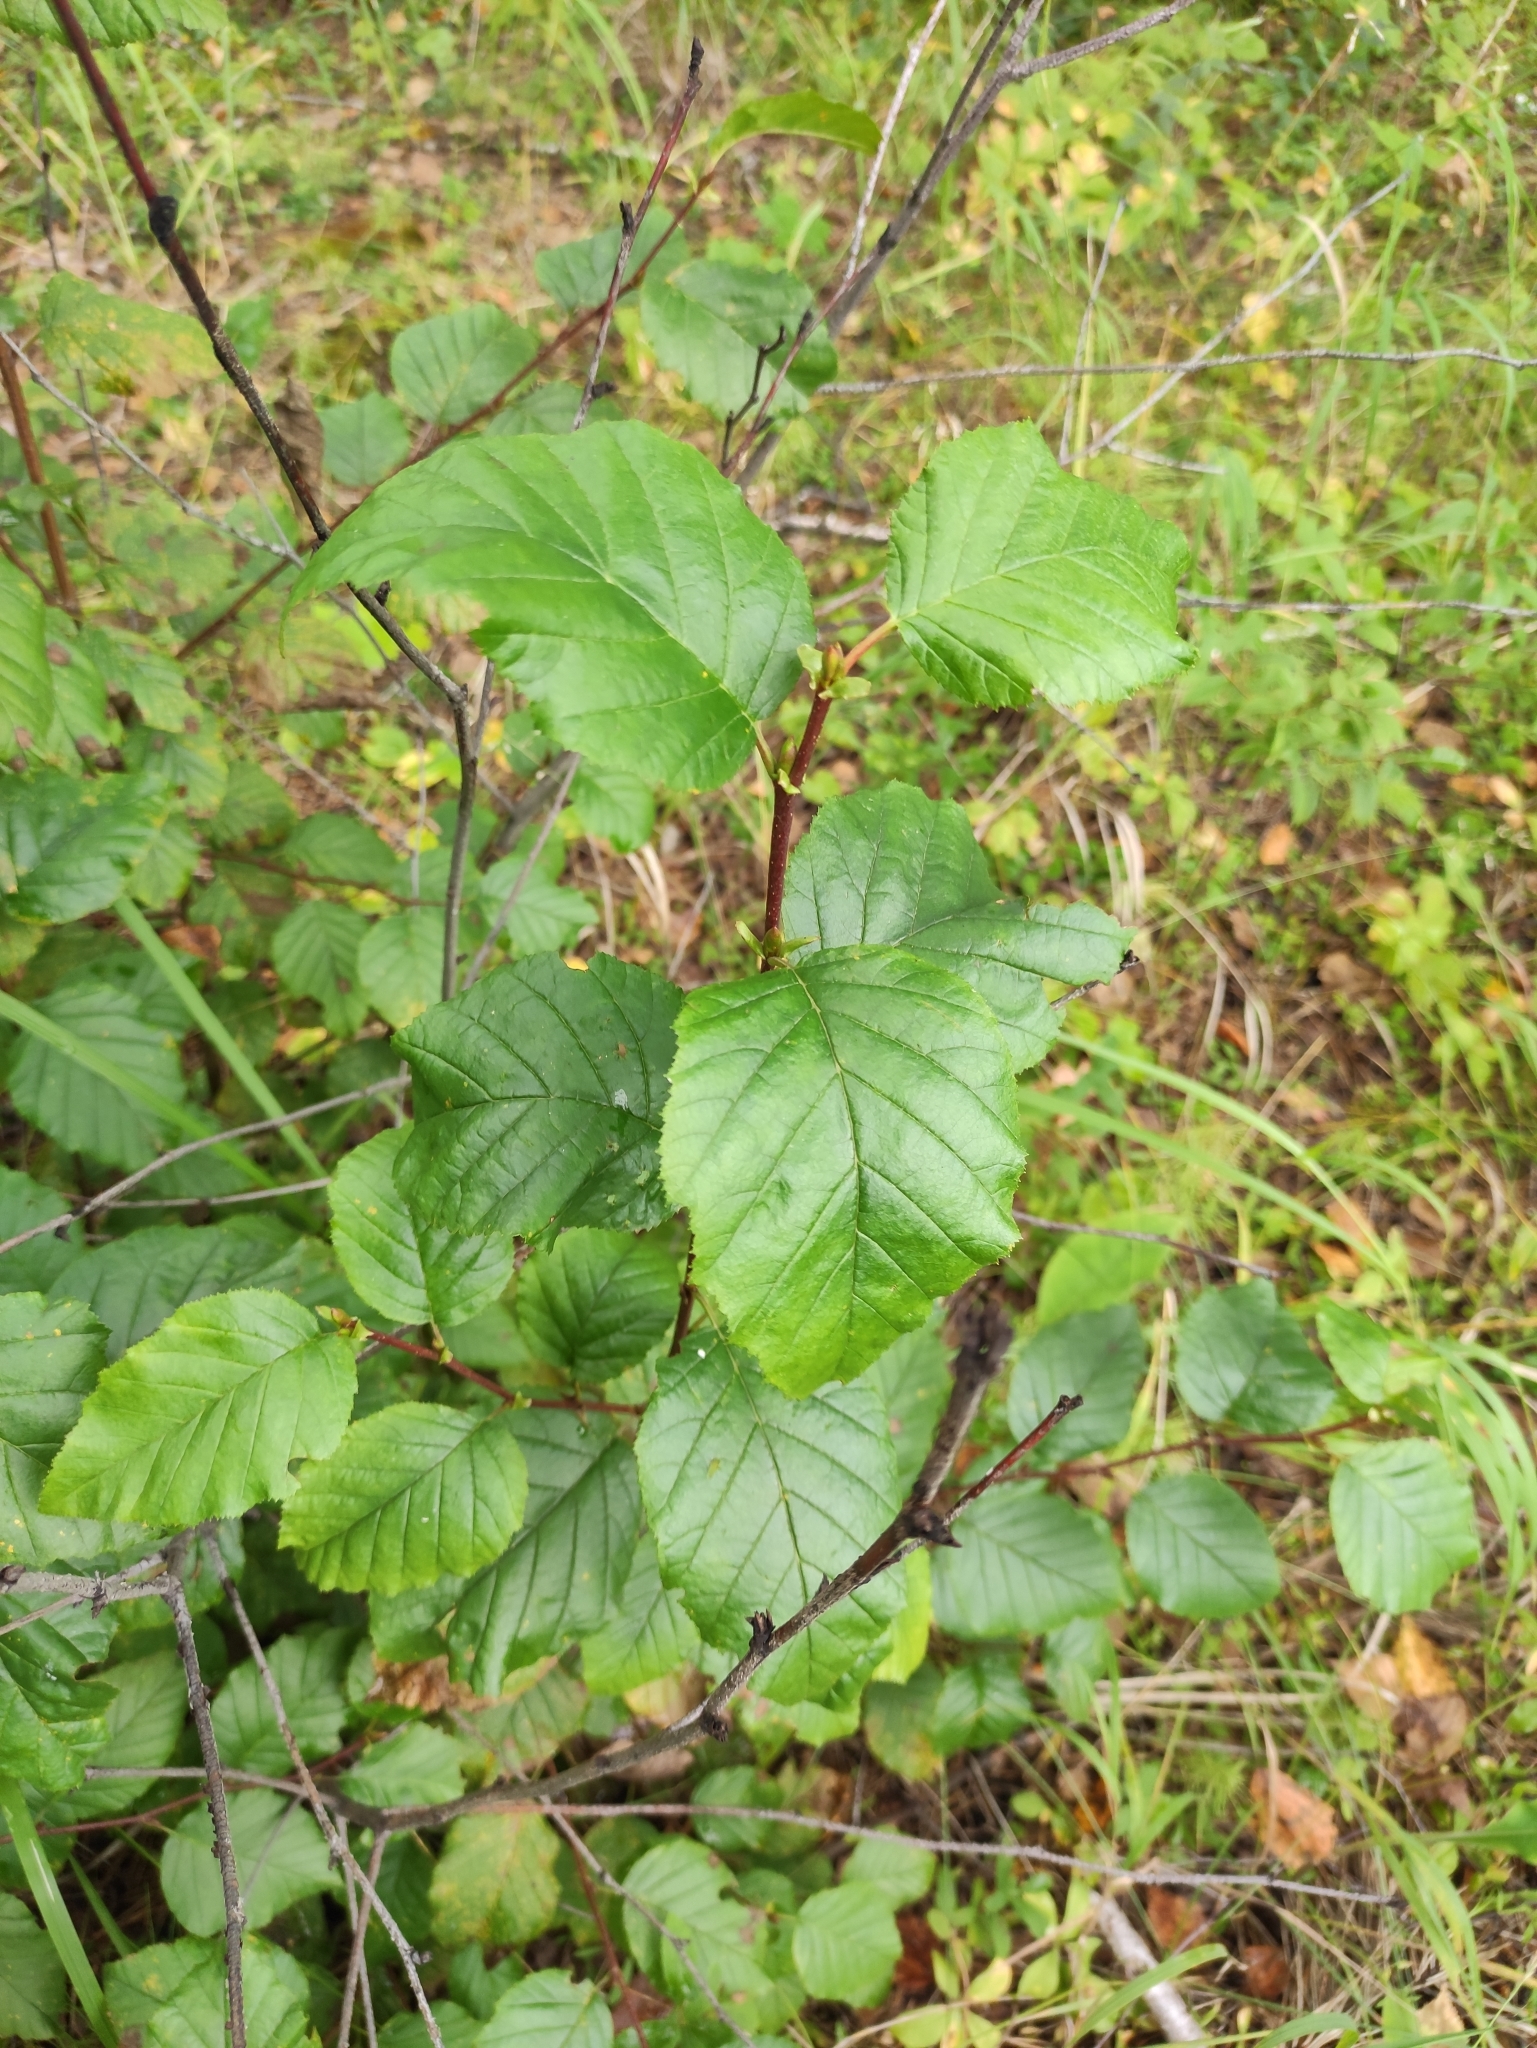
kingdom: Plantae
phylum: Tracheophyta
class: Magnoliopsida
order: Fagales
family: Betulaceae
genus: Alnus
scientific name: Alnus alnobetula
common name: Green alder
